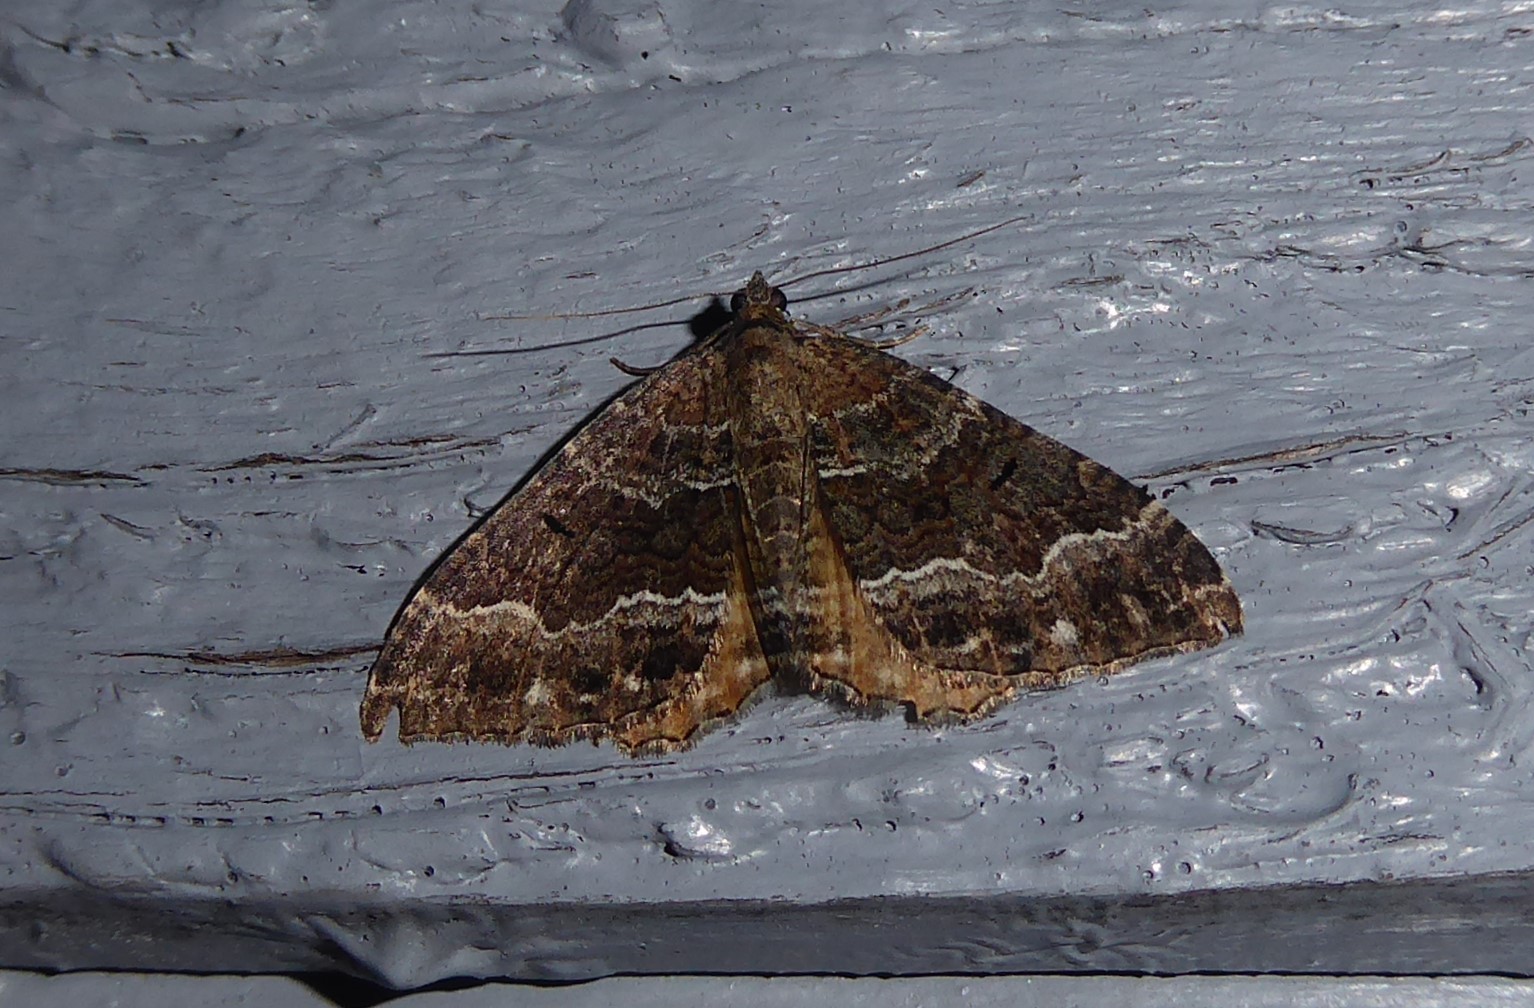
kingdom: Animalia
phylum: Arthropoda
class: Insecta
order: Lepidoptera
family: Geometridae
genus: Hydriomena
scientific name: Hydriomena deltoidata
